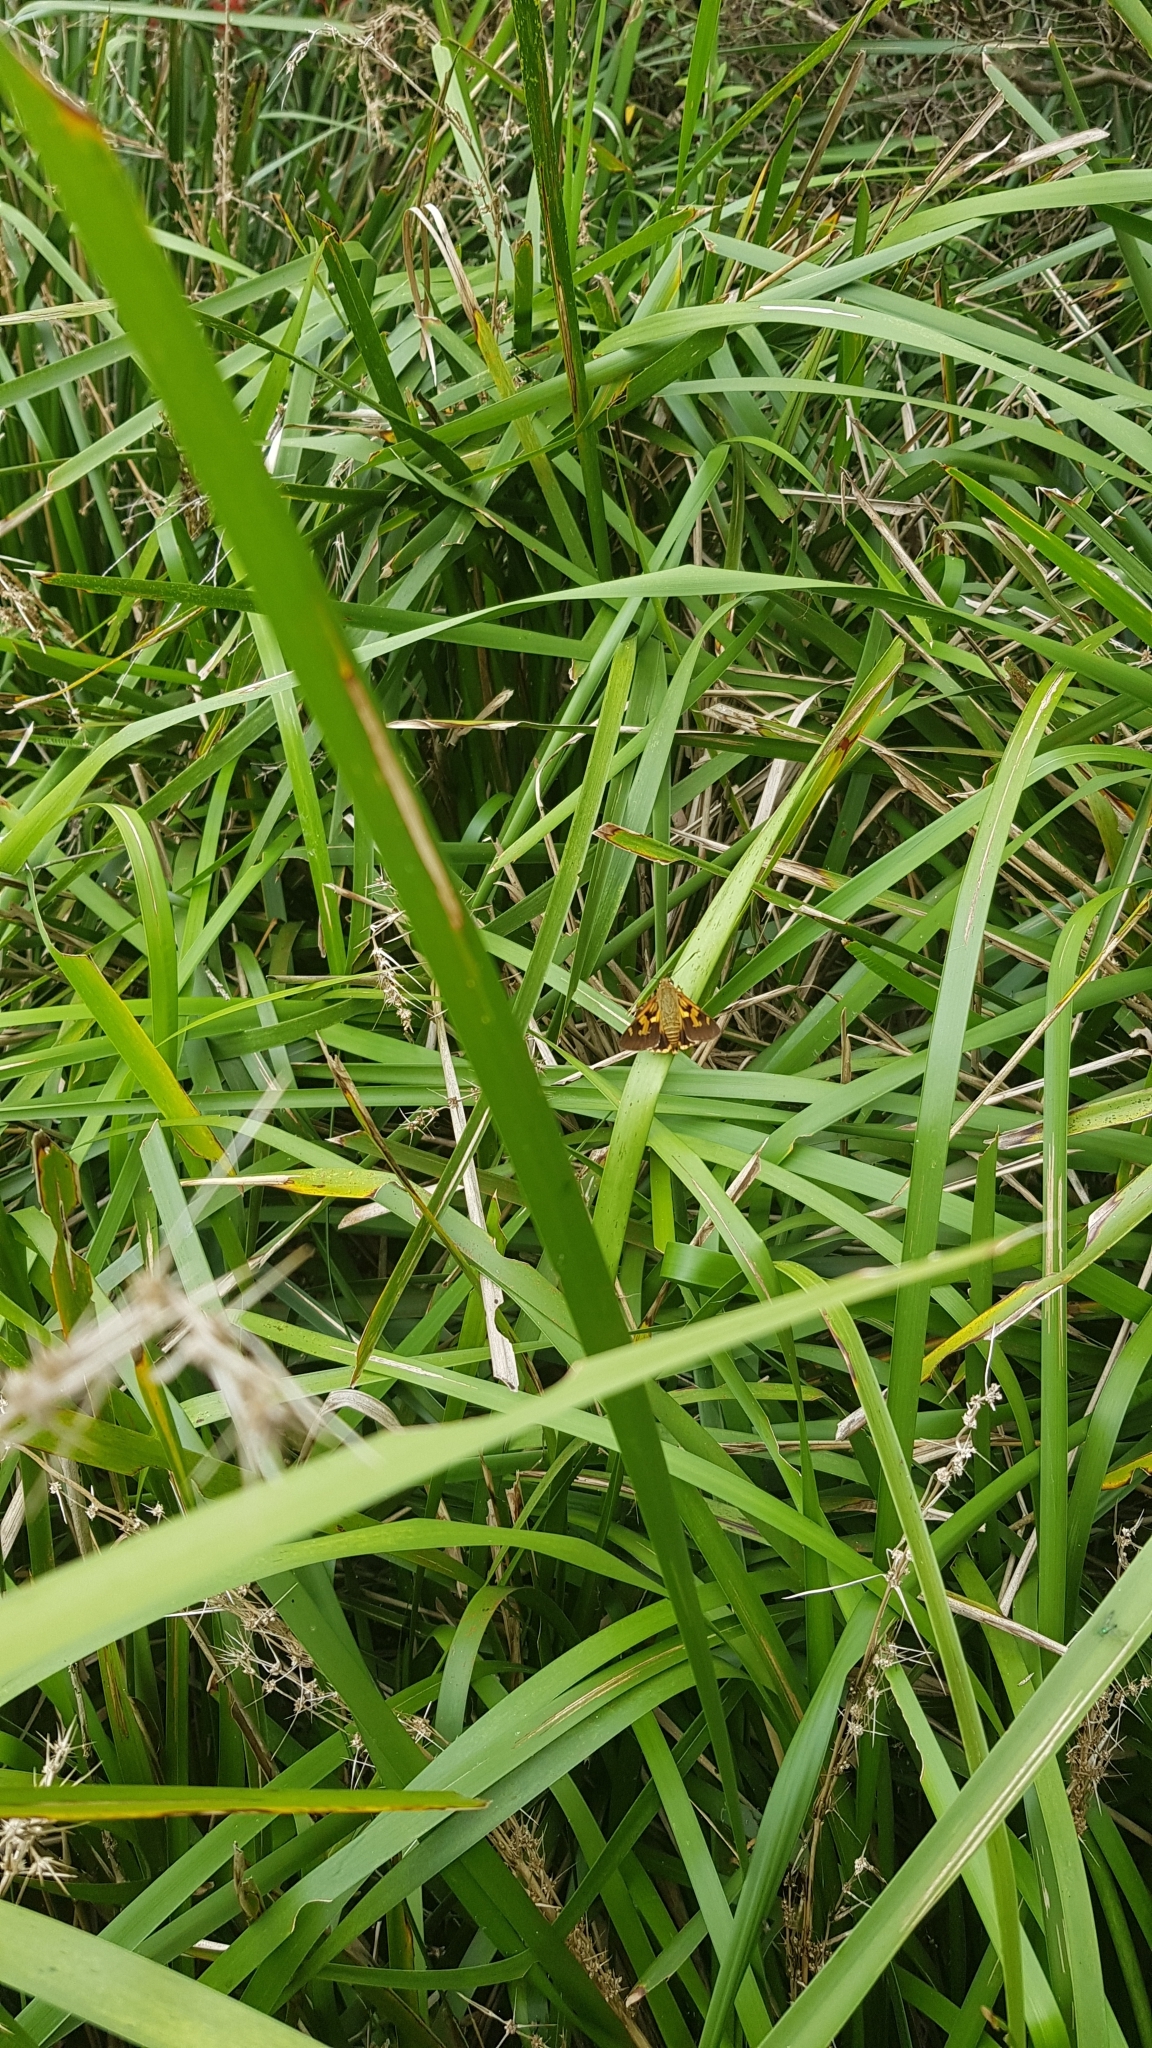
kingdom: Animalia
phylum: Arthropoda
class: Insecta
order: Lepidoptera
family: Hesperiidae
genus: Trapezites
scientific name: Trapezites symmomus
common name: Splendid ochre
